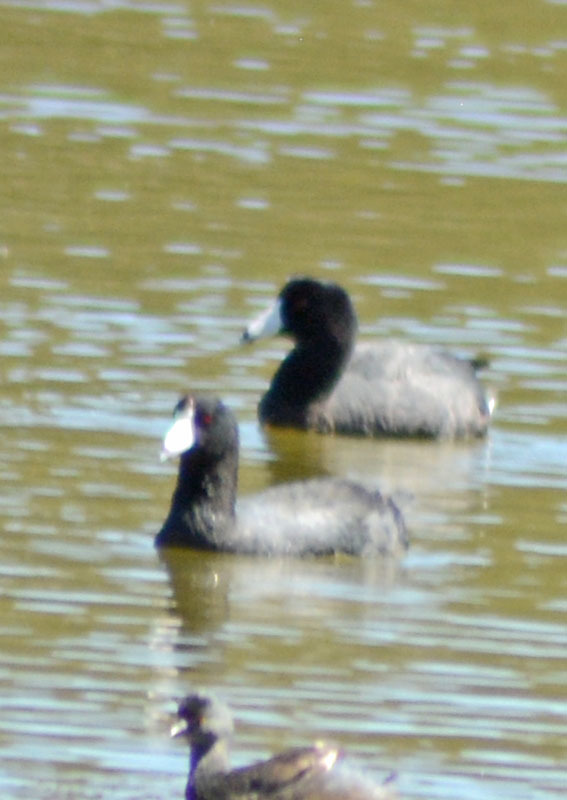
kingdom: Animalia
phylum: Chordata
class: Aves
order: Gruiformes
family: Rallidae
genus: Fulica
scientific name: Fulica americana
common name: American coot
